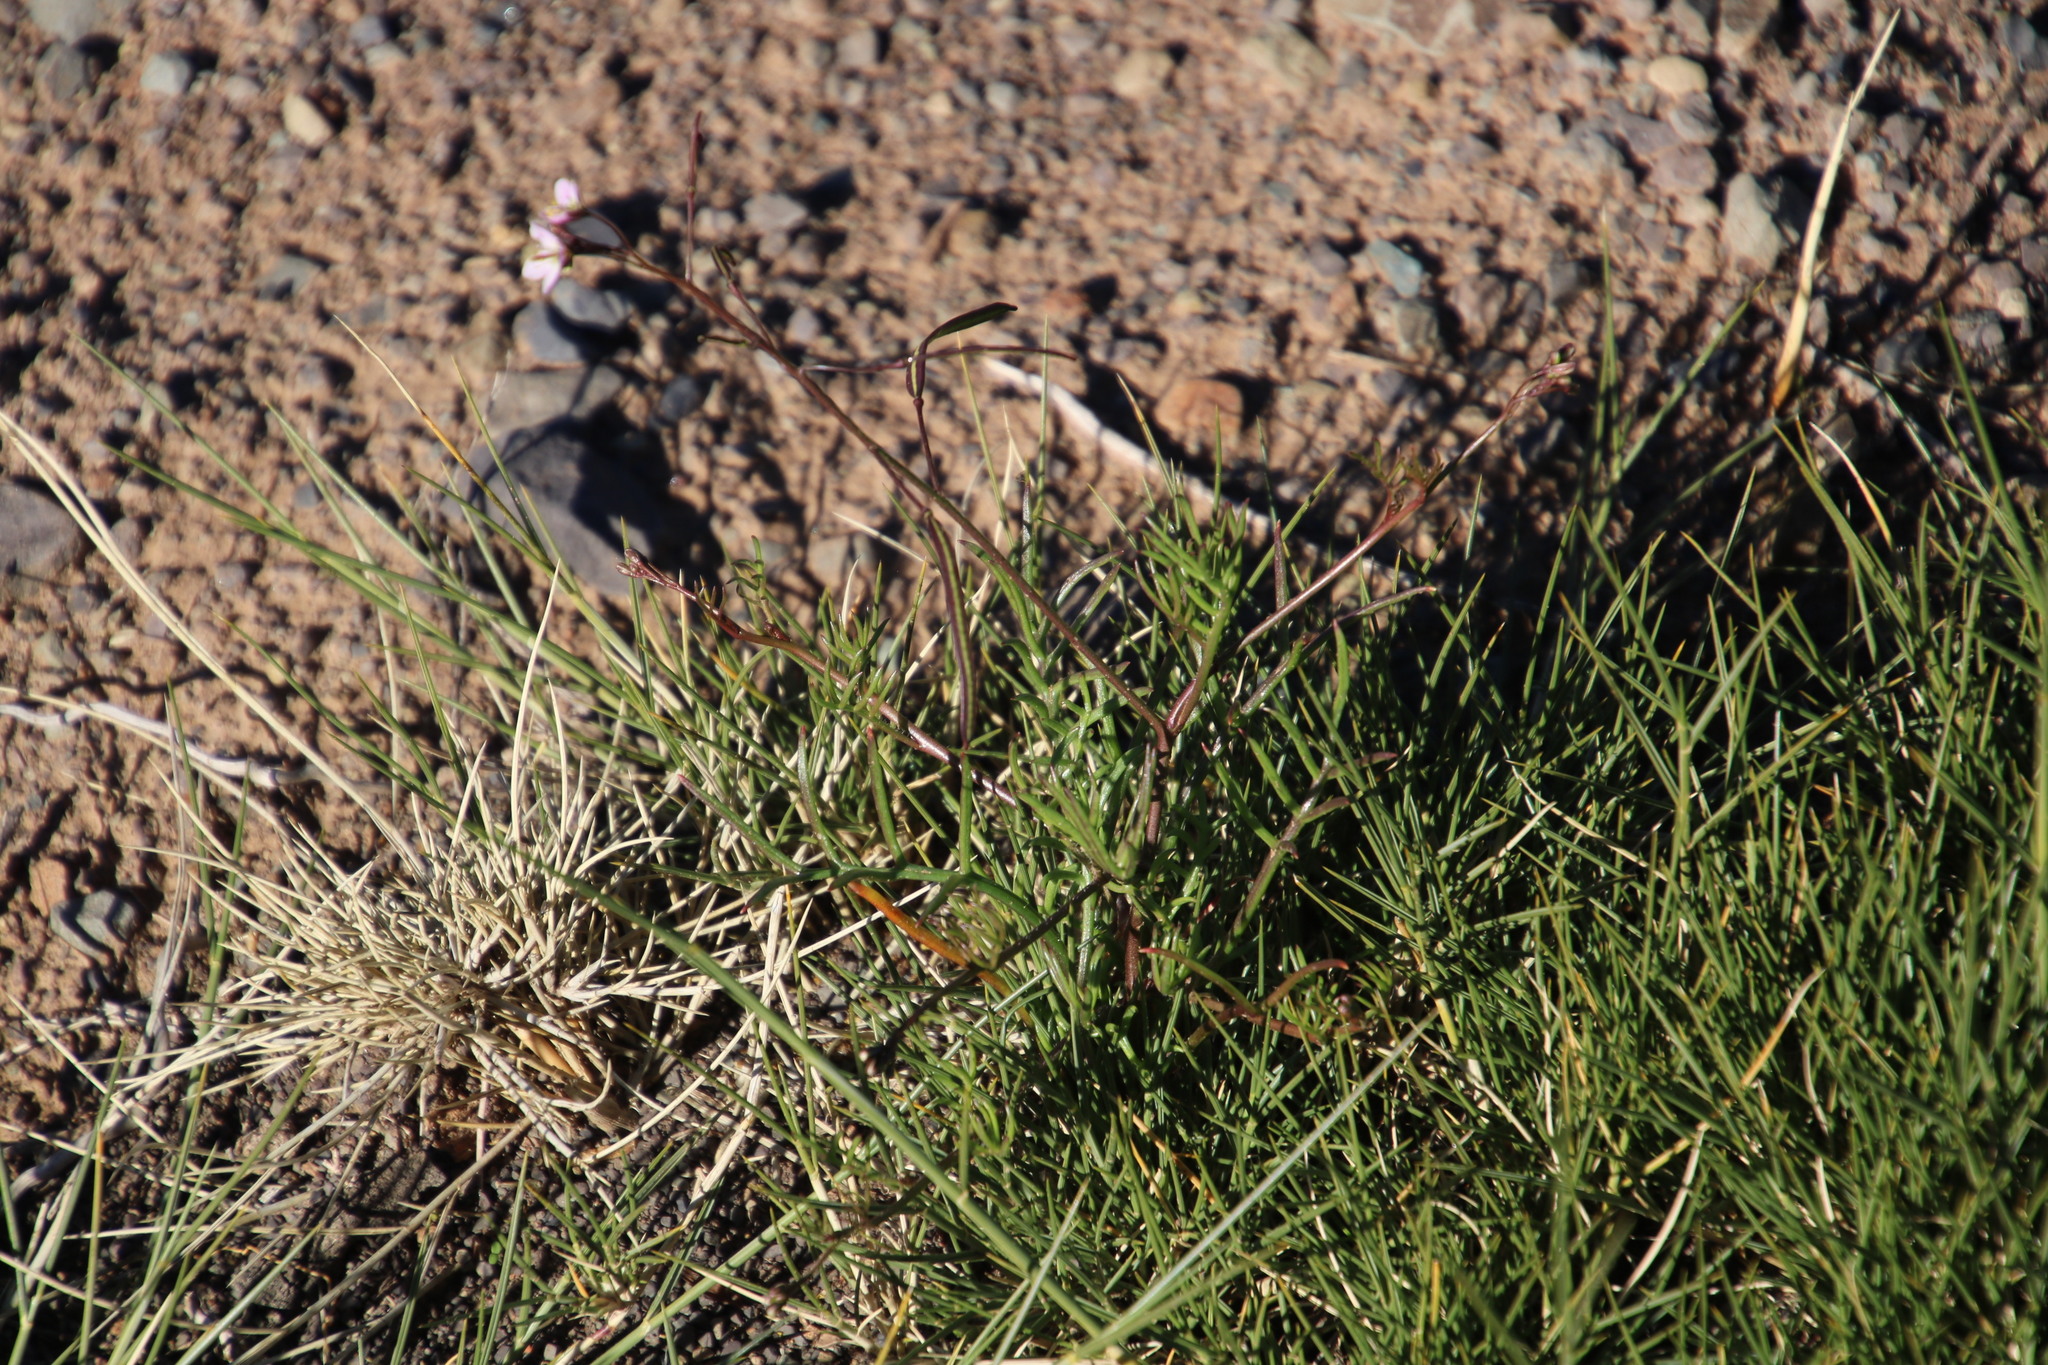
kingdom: Plantae
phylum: Tracheophyta
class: Magnoliopsida
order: Brassicales
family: Brassicaceae
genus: Heliophila
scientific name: Heliophila crithmifolia
